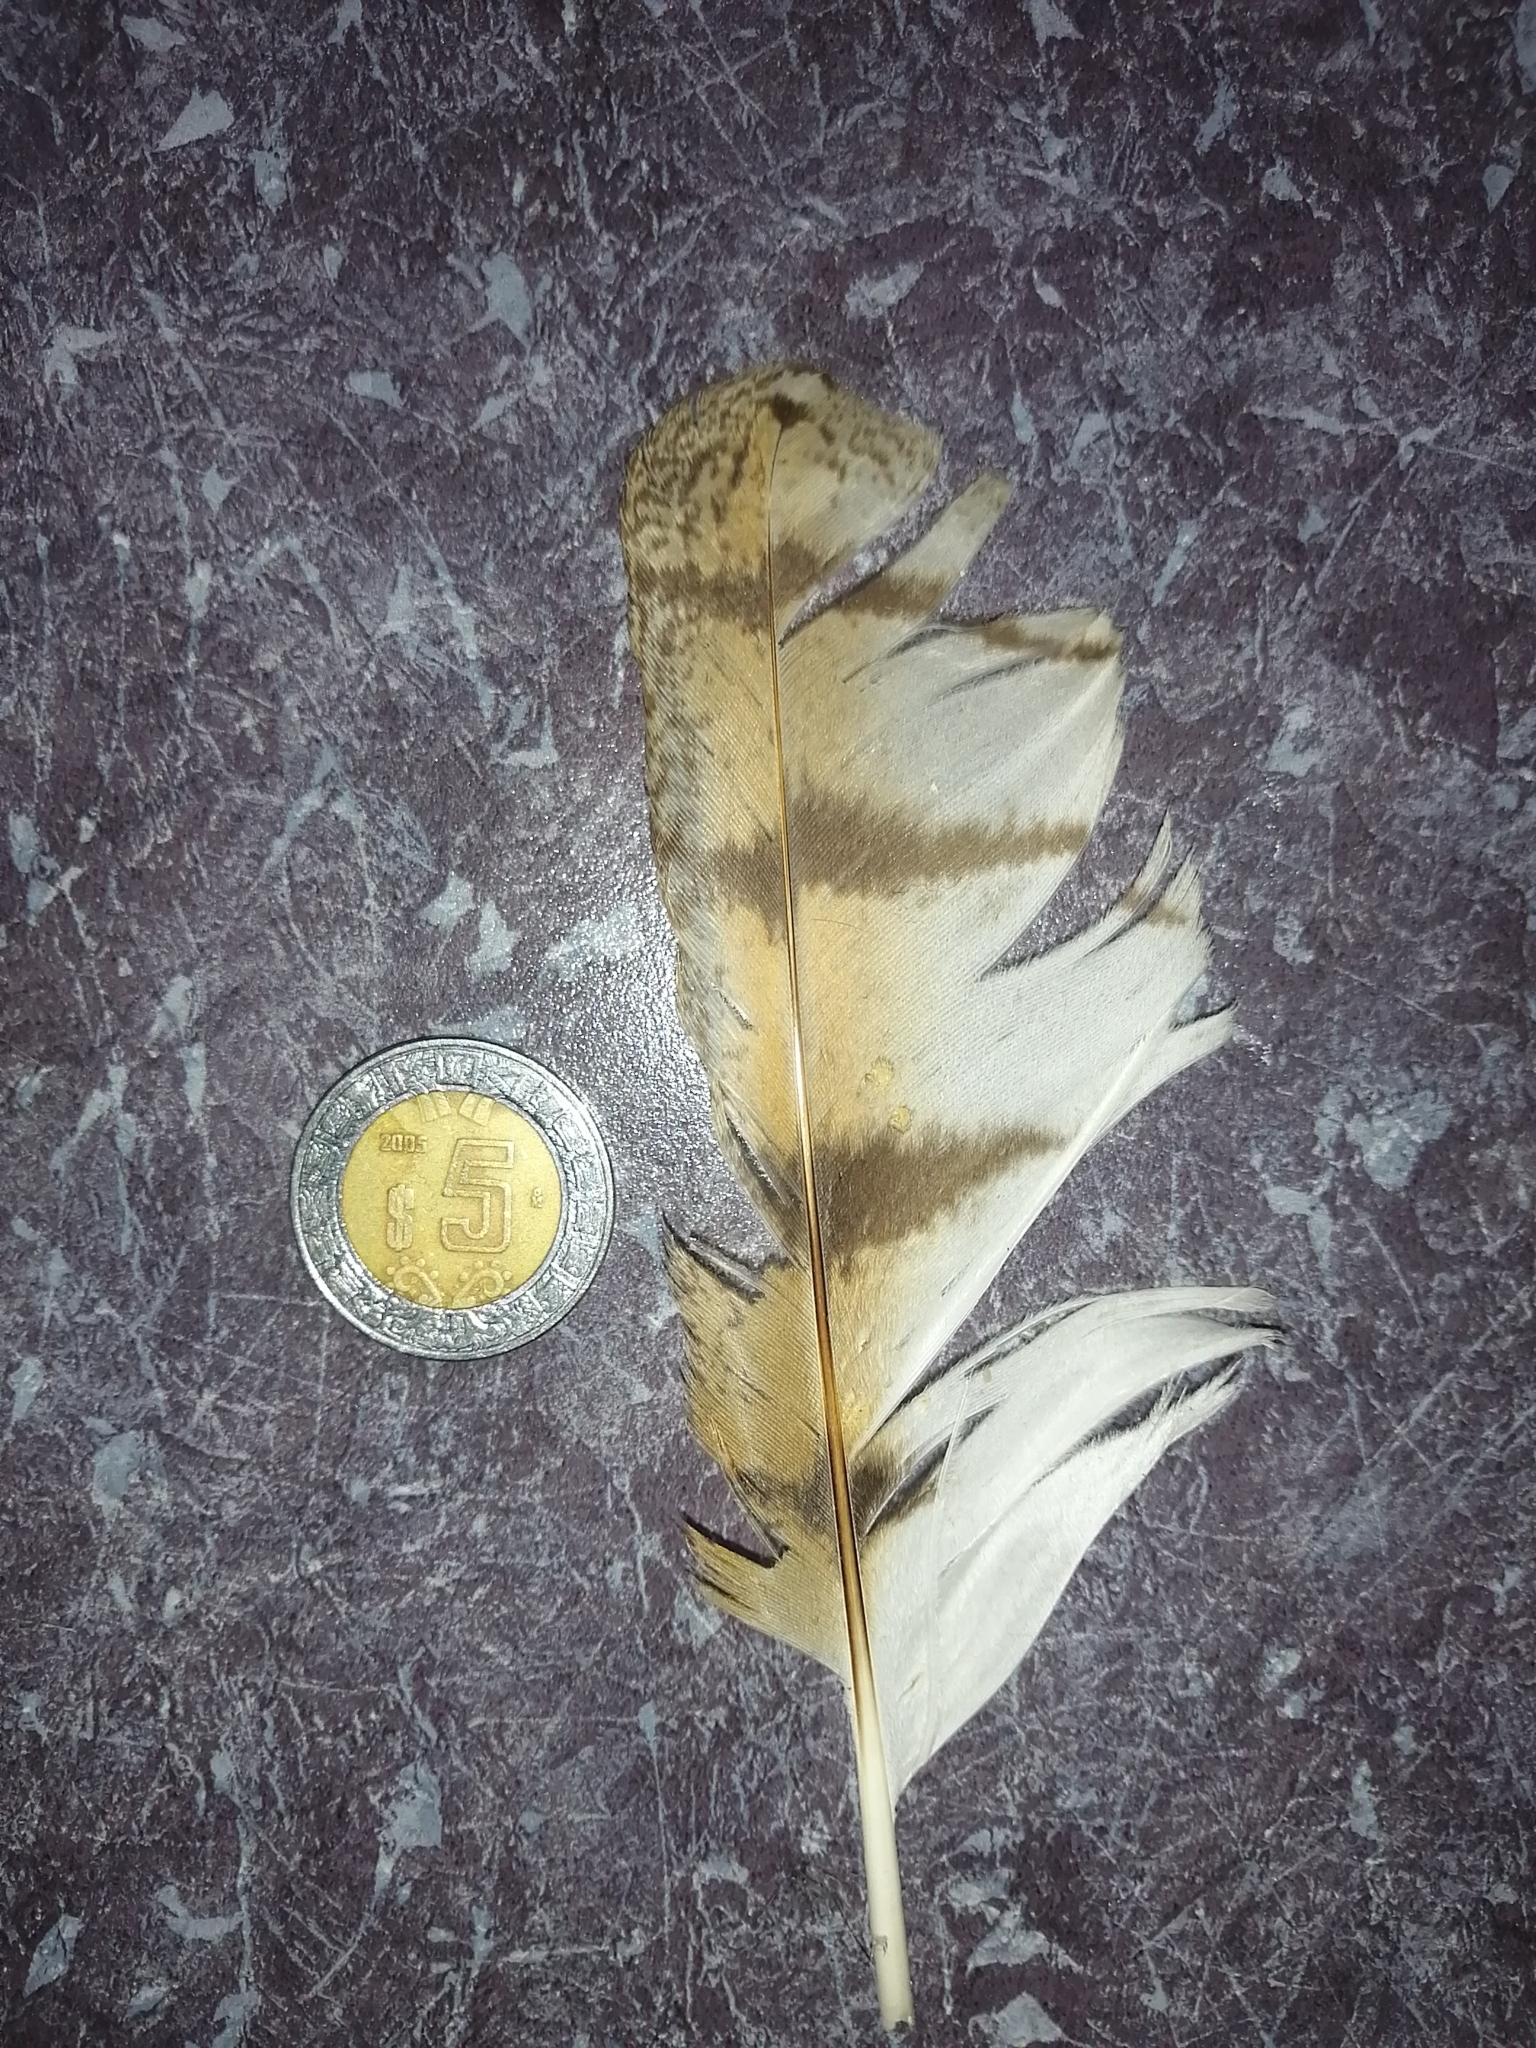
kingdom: Animalia
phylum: Chordata
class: Aves
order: Strigiformes
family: Tytonidae
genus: Tyto
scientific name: Tyto alba
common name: Barn owl
